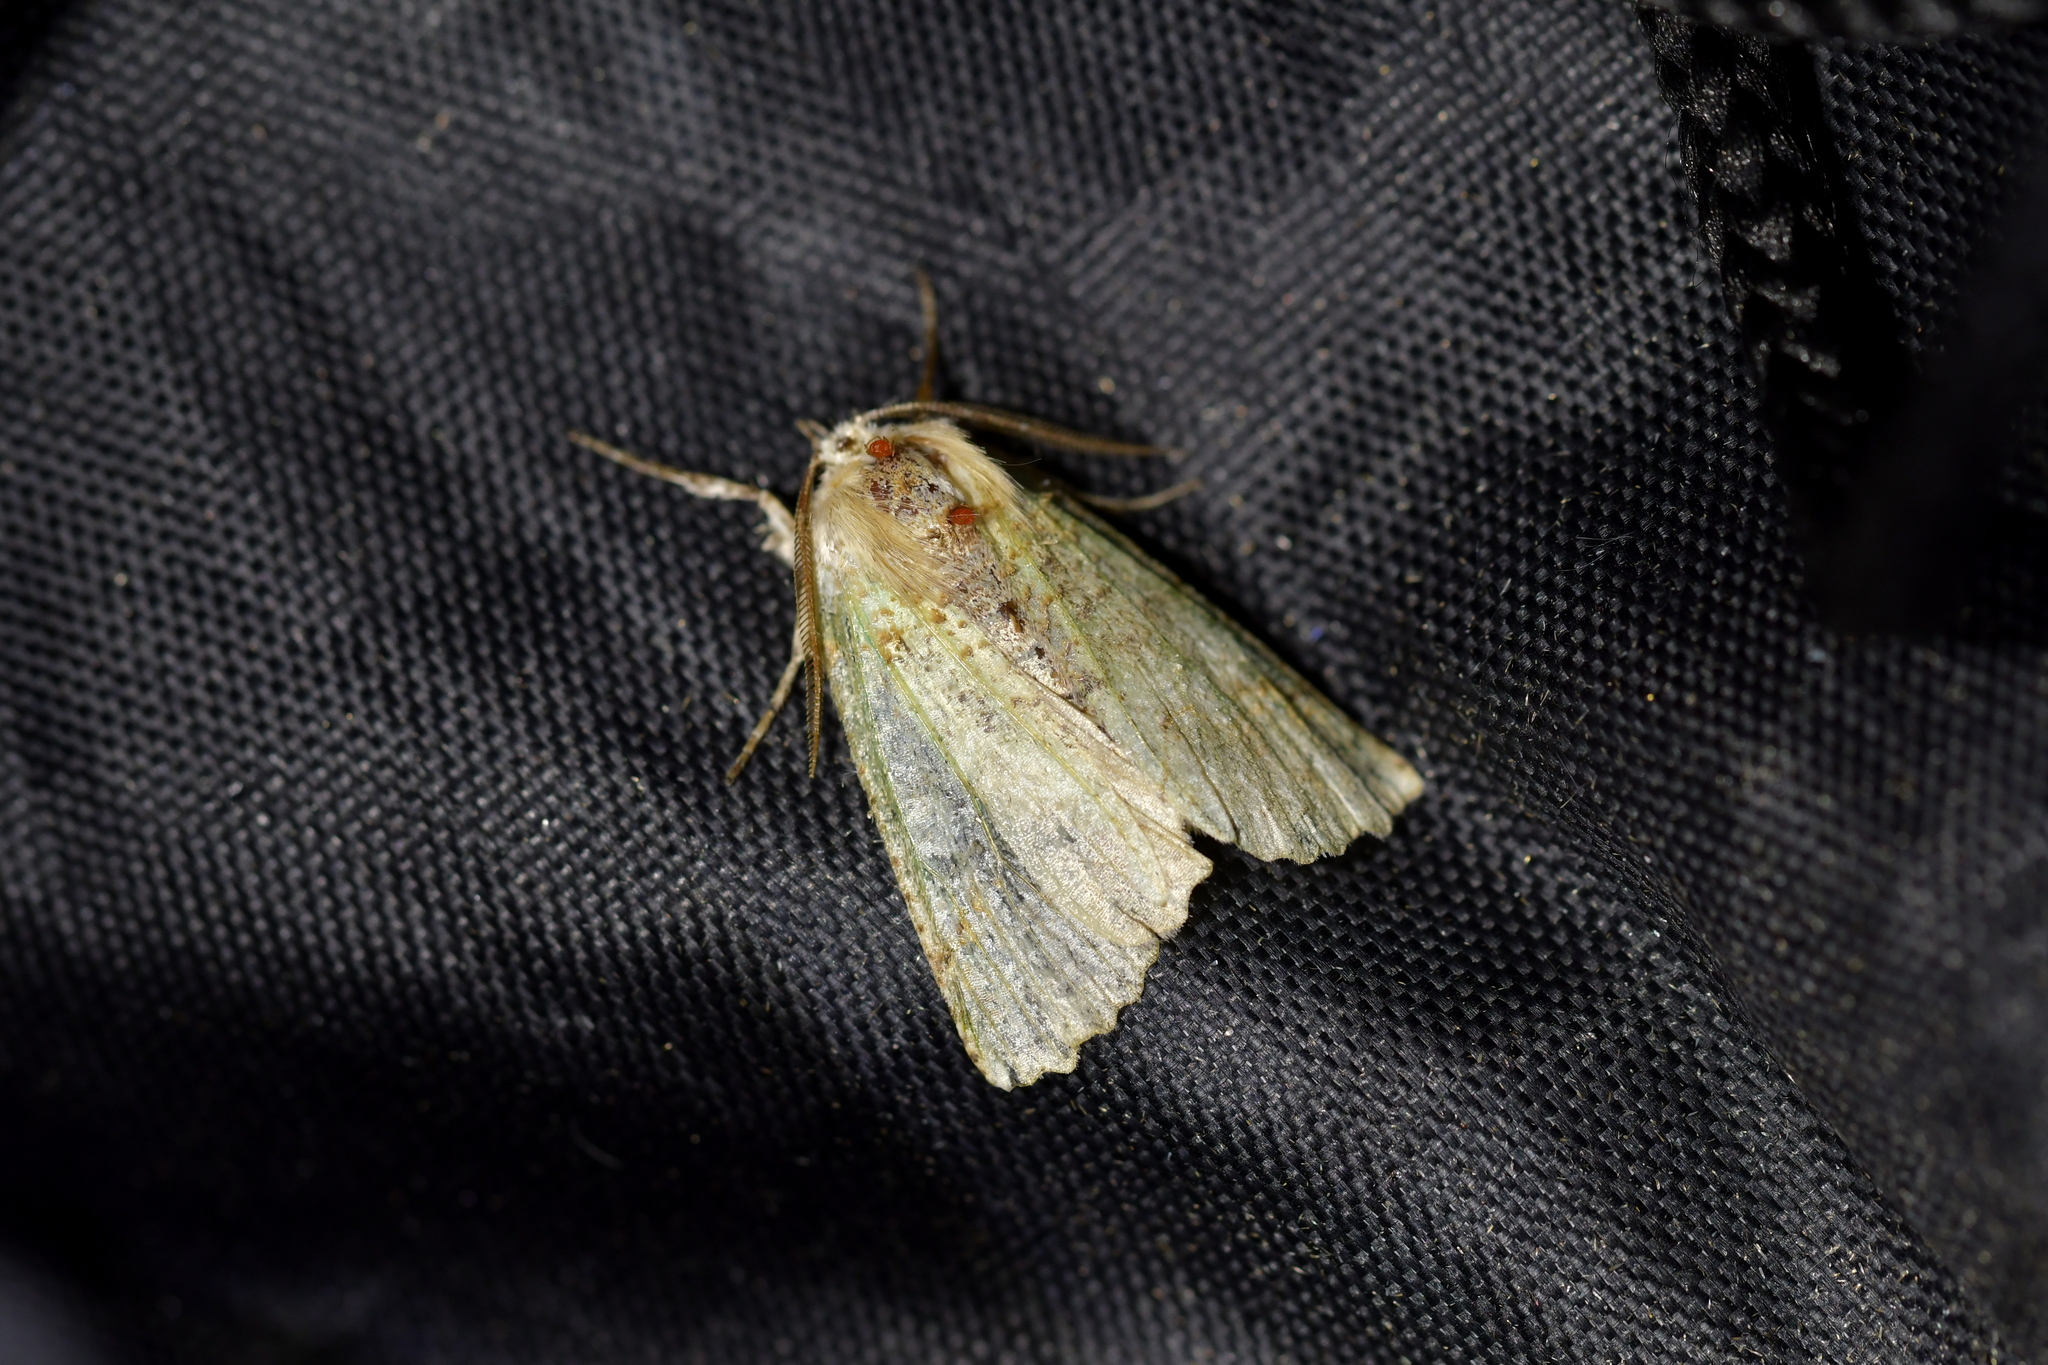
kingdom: Animalia
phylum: Arthropoda
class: Insecta
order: Lepidoptera
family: Geometridae
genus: Declana
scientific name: Declana floccosa
